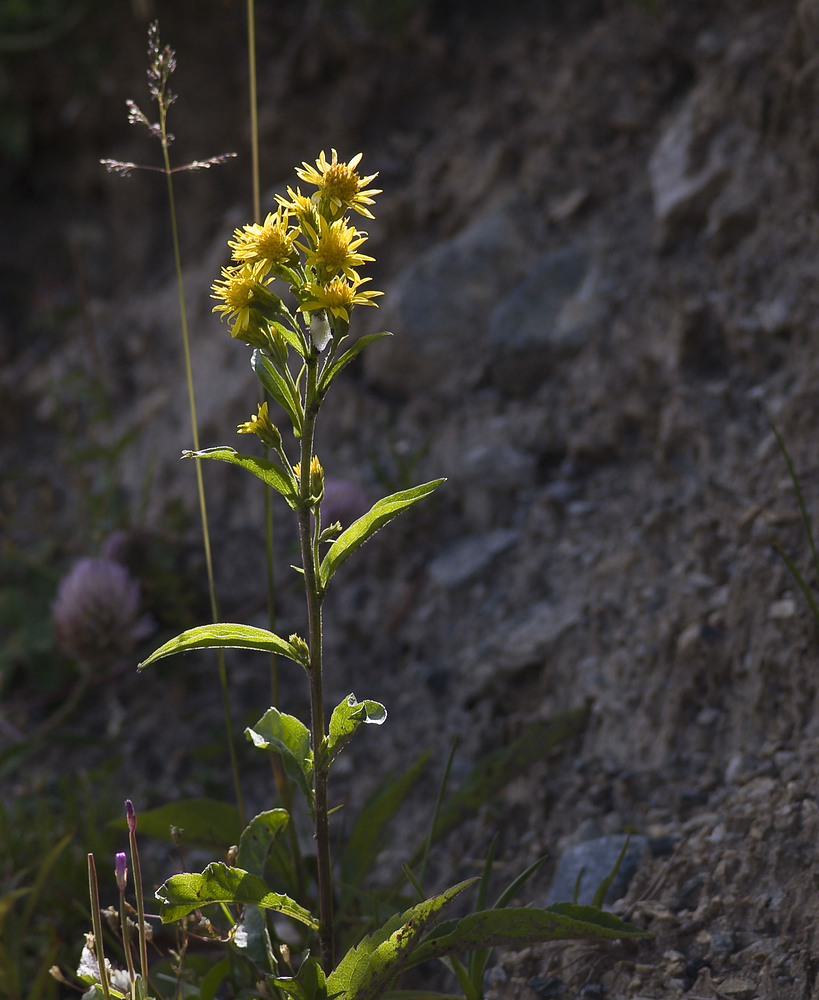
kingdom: Plantae
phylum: Tracheophyta
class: Magnoliopsida
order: Asterales
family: Asteraceae
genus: Solidago
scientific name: Solidago virgaurea
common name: Goldenrod
